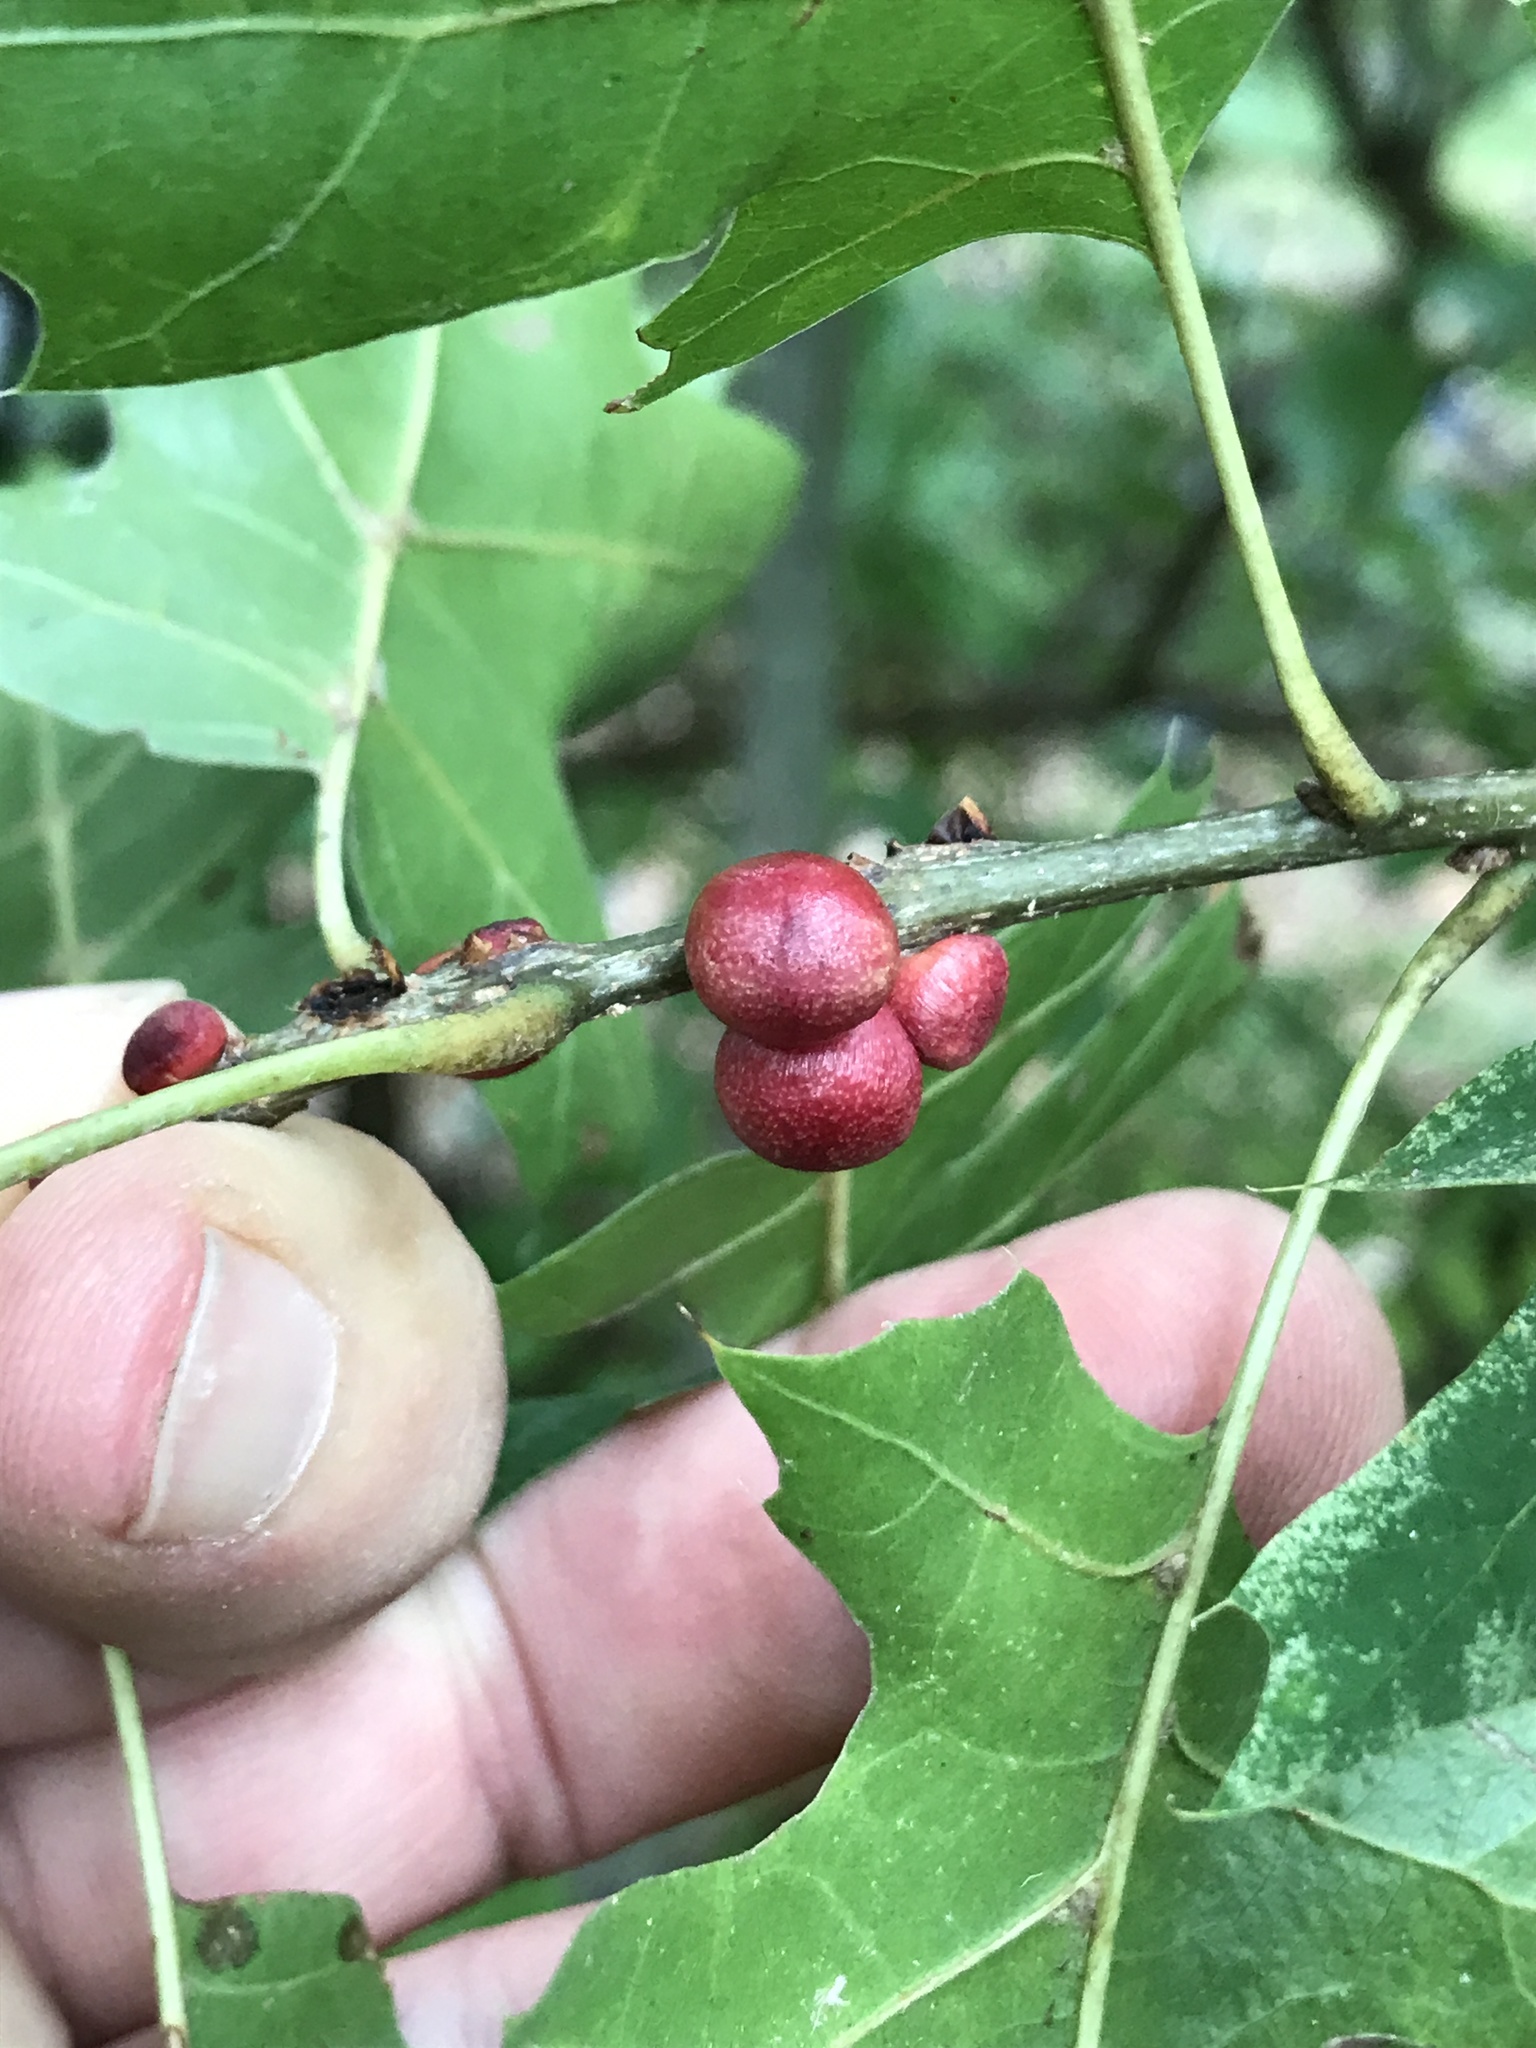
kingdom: Animalia
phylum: Arthropoda
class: Insecta
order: Hymenoptera
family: Cynipidae
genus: Kokkocynips
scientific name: Kokkocynips imbricariae
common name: Banded bullet gall wasp
